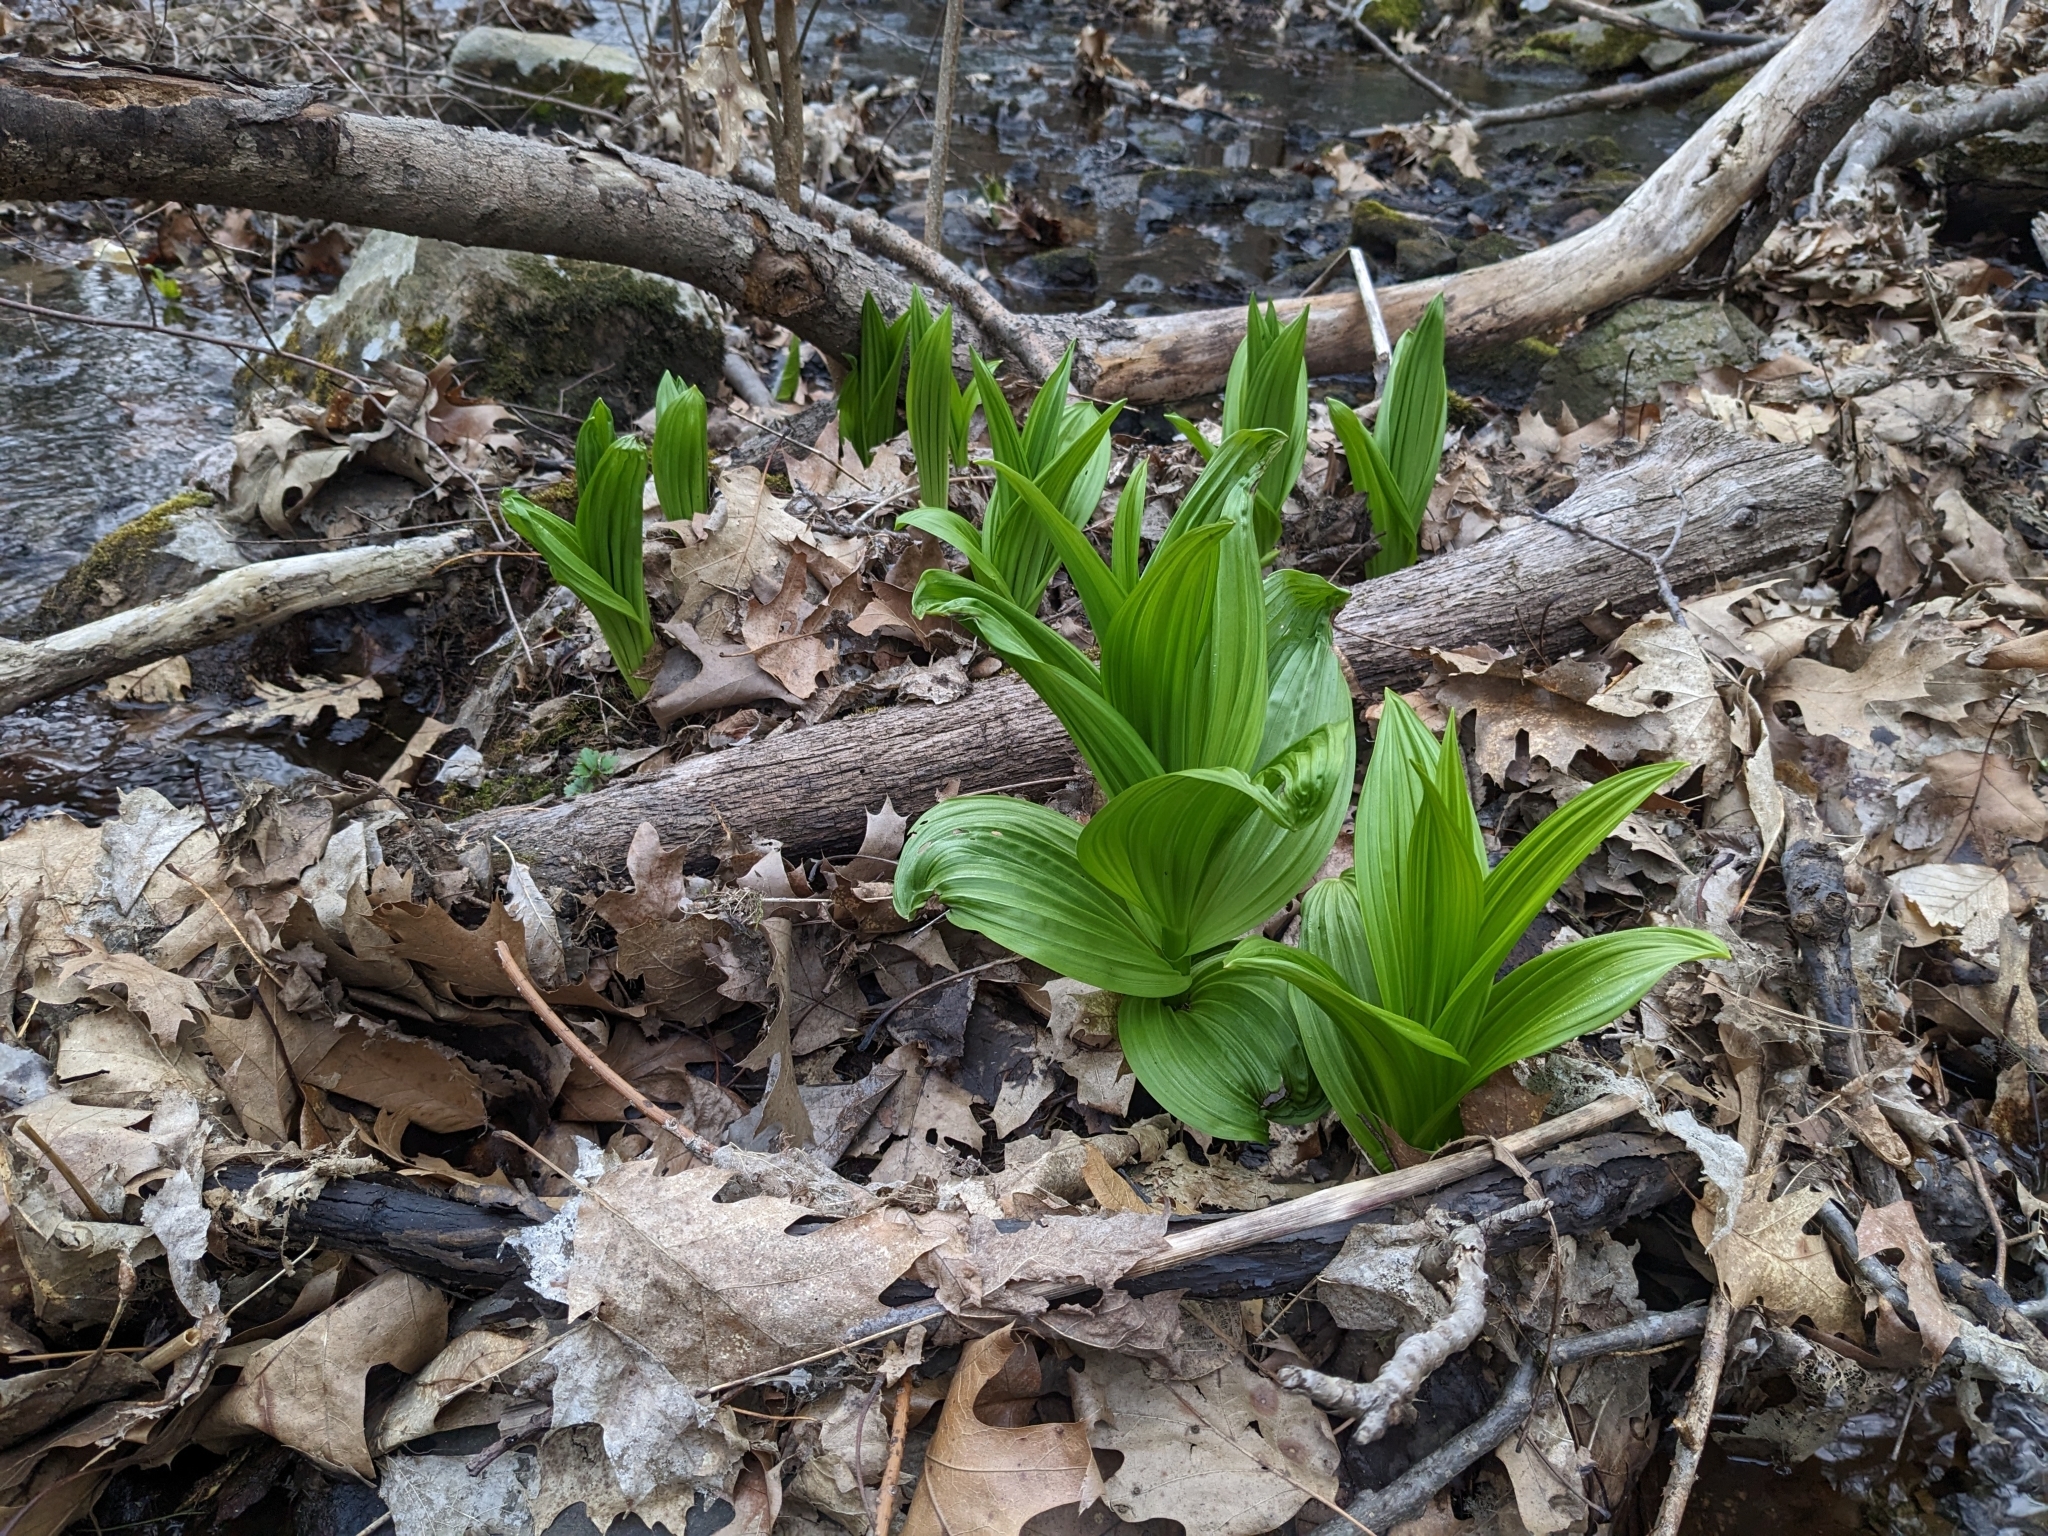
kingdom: Plantae
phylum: Tracheophyta
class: Liliopsida
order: Liliales
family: Melanthiaceae
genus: Veratrum
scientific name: Veratrum viride
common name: American false hellebore
